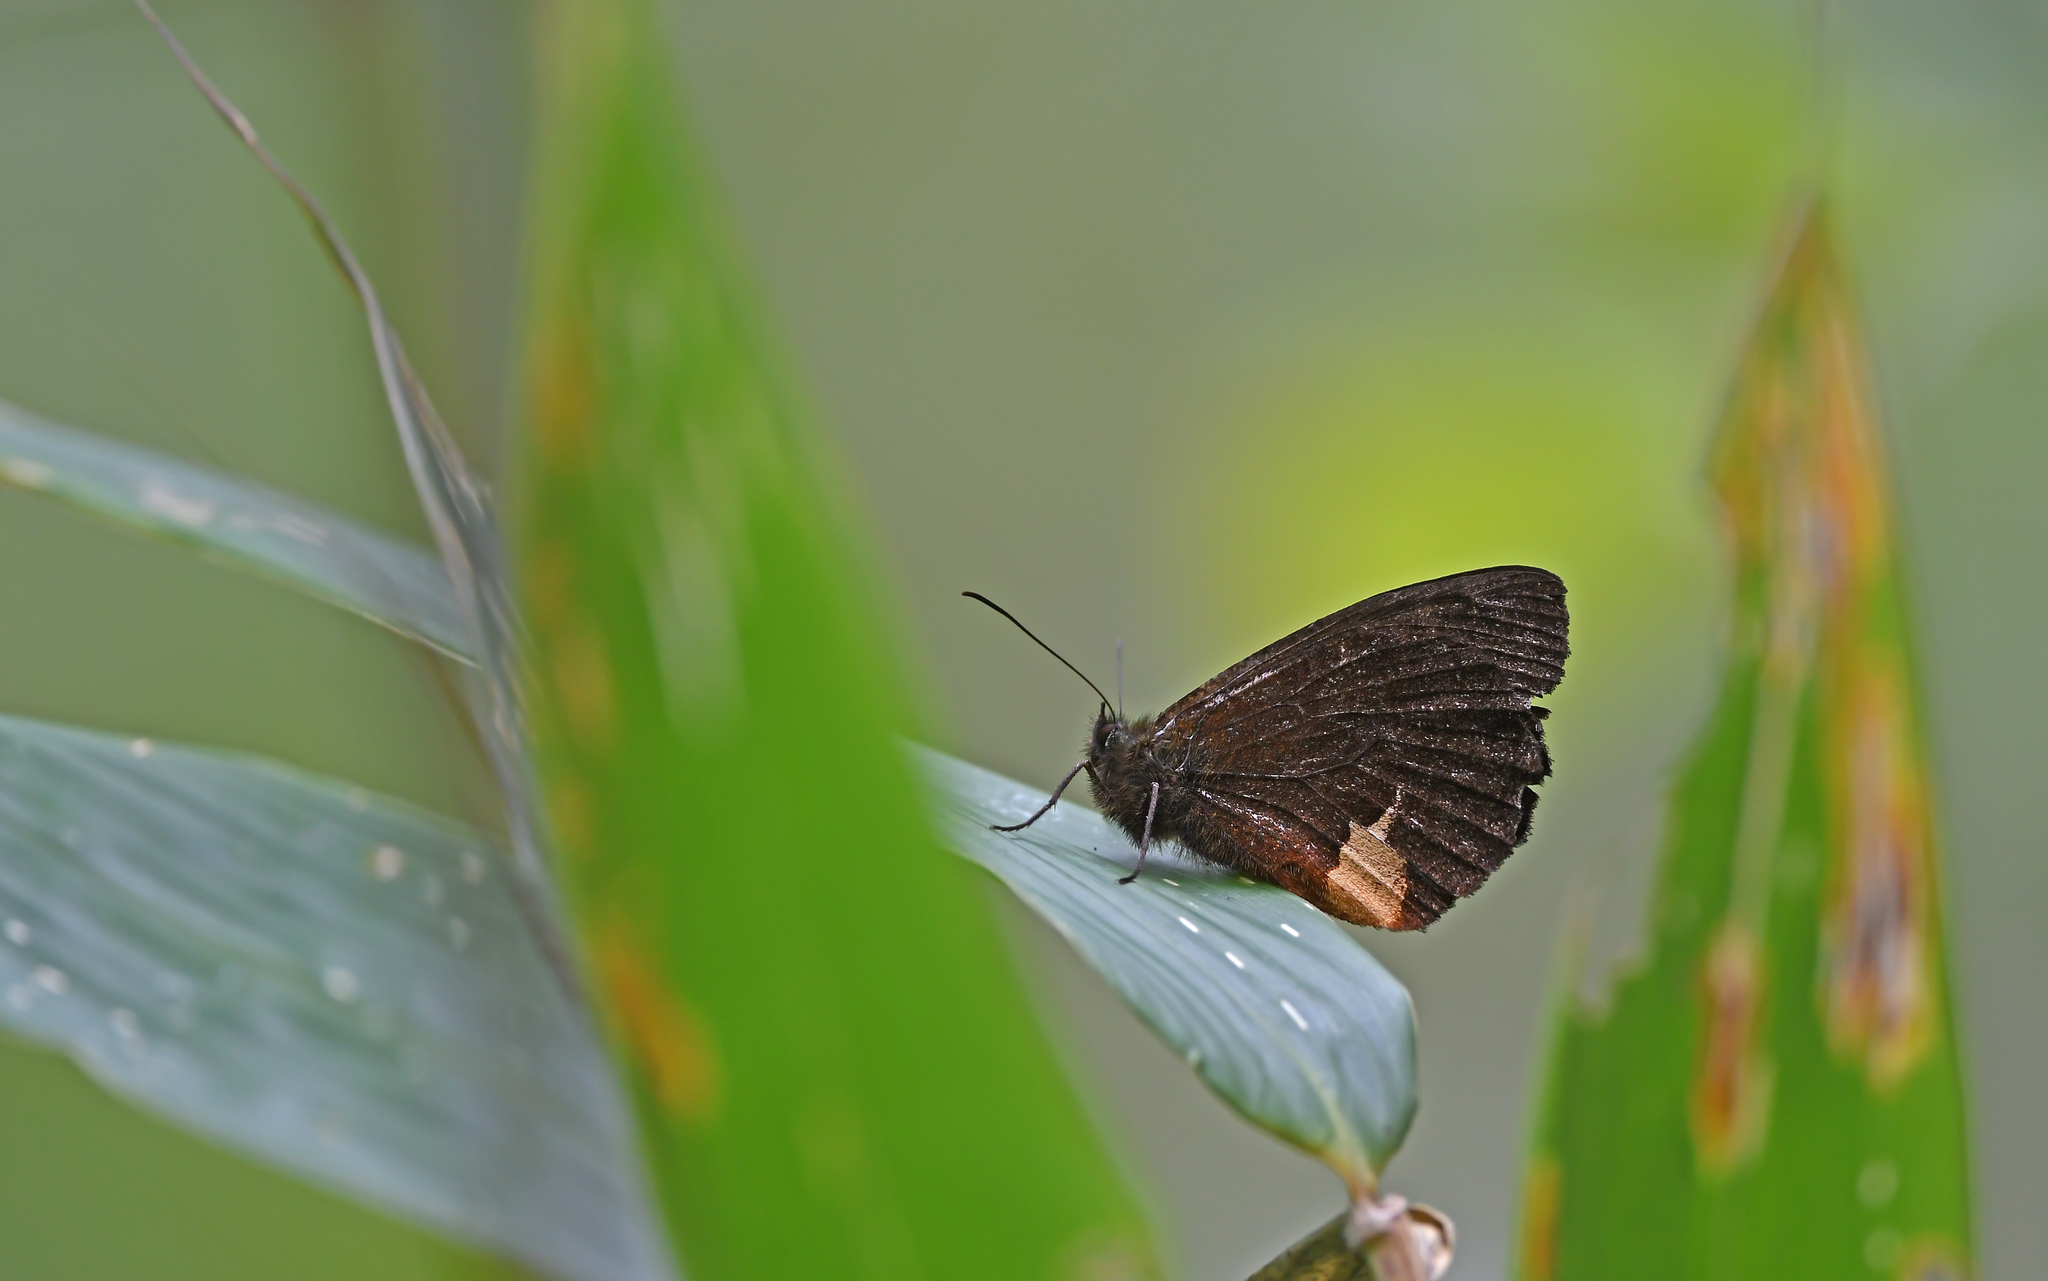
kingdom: Animalia
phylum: Arthropoda
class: Insecta
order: Lepidoptera
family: Nymphalidae
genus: Pedaliodes
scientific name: Pedaliodes paneis
